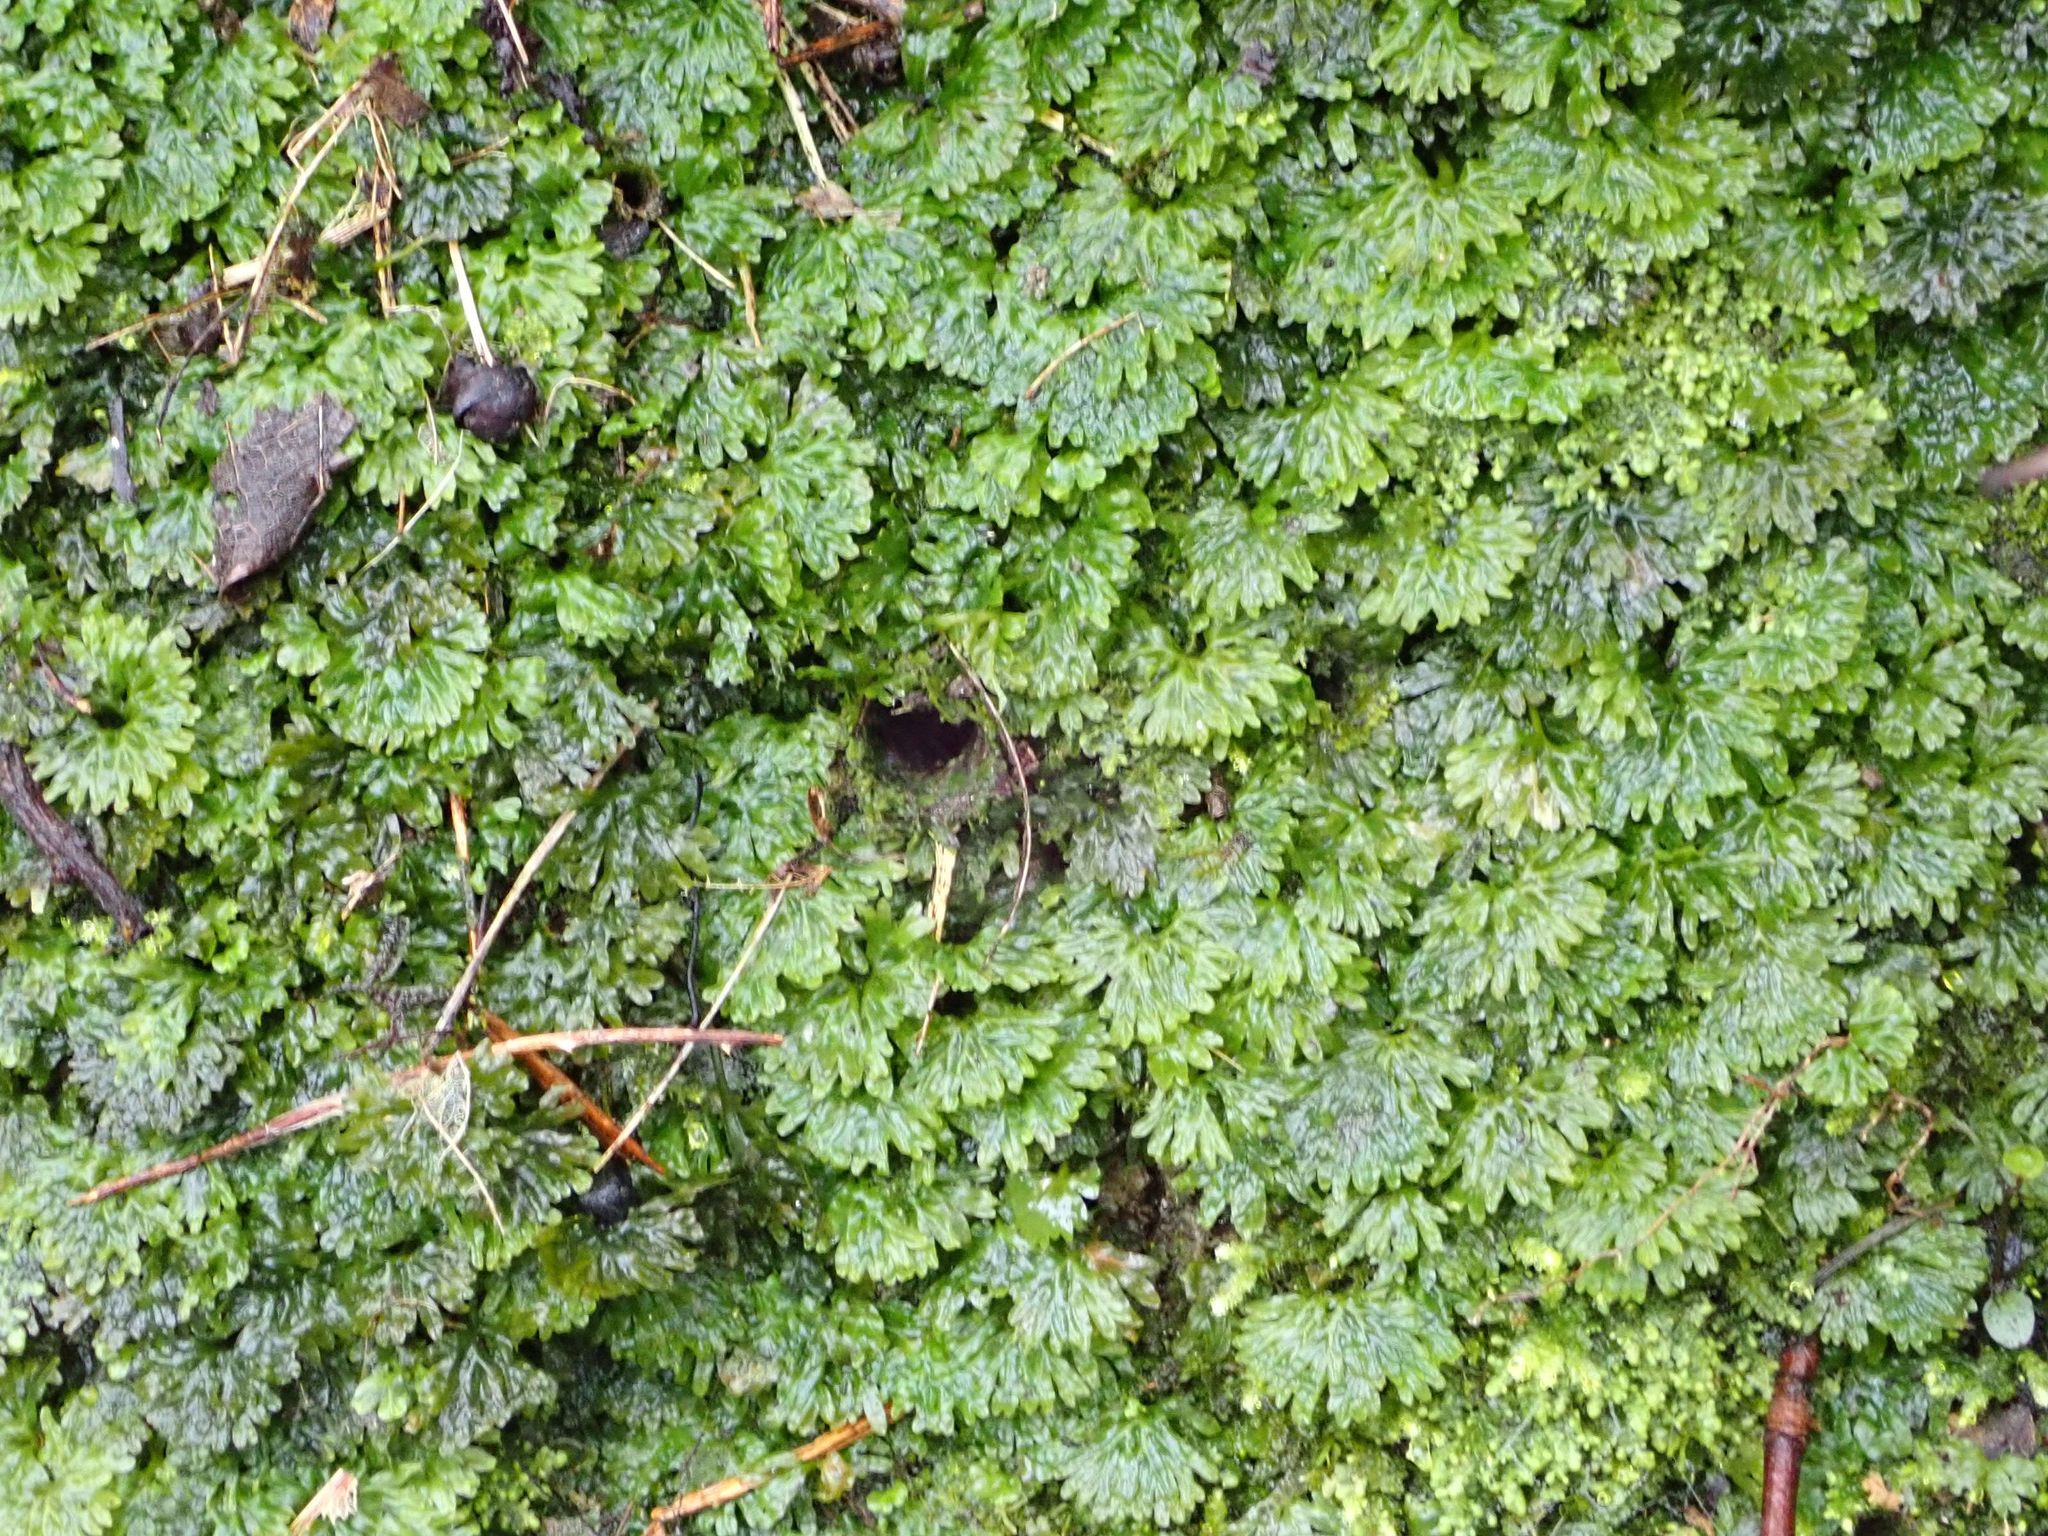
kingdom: Plantae
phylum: Marchantiophyta
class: Jungermanniopsida
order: Pallaviciniales
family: Hymenophytaceae
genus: Hymenophyton
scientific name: Hymenophyton flabellatum
